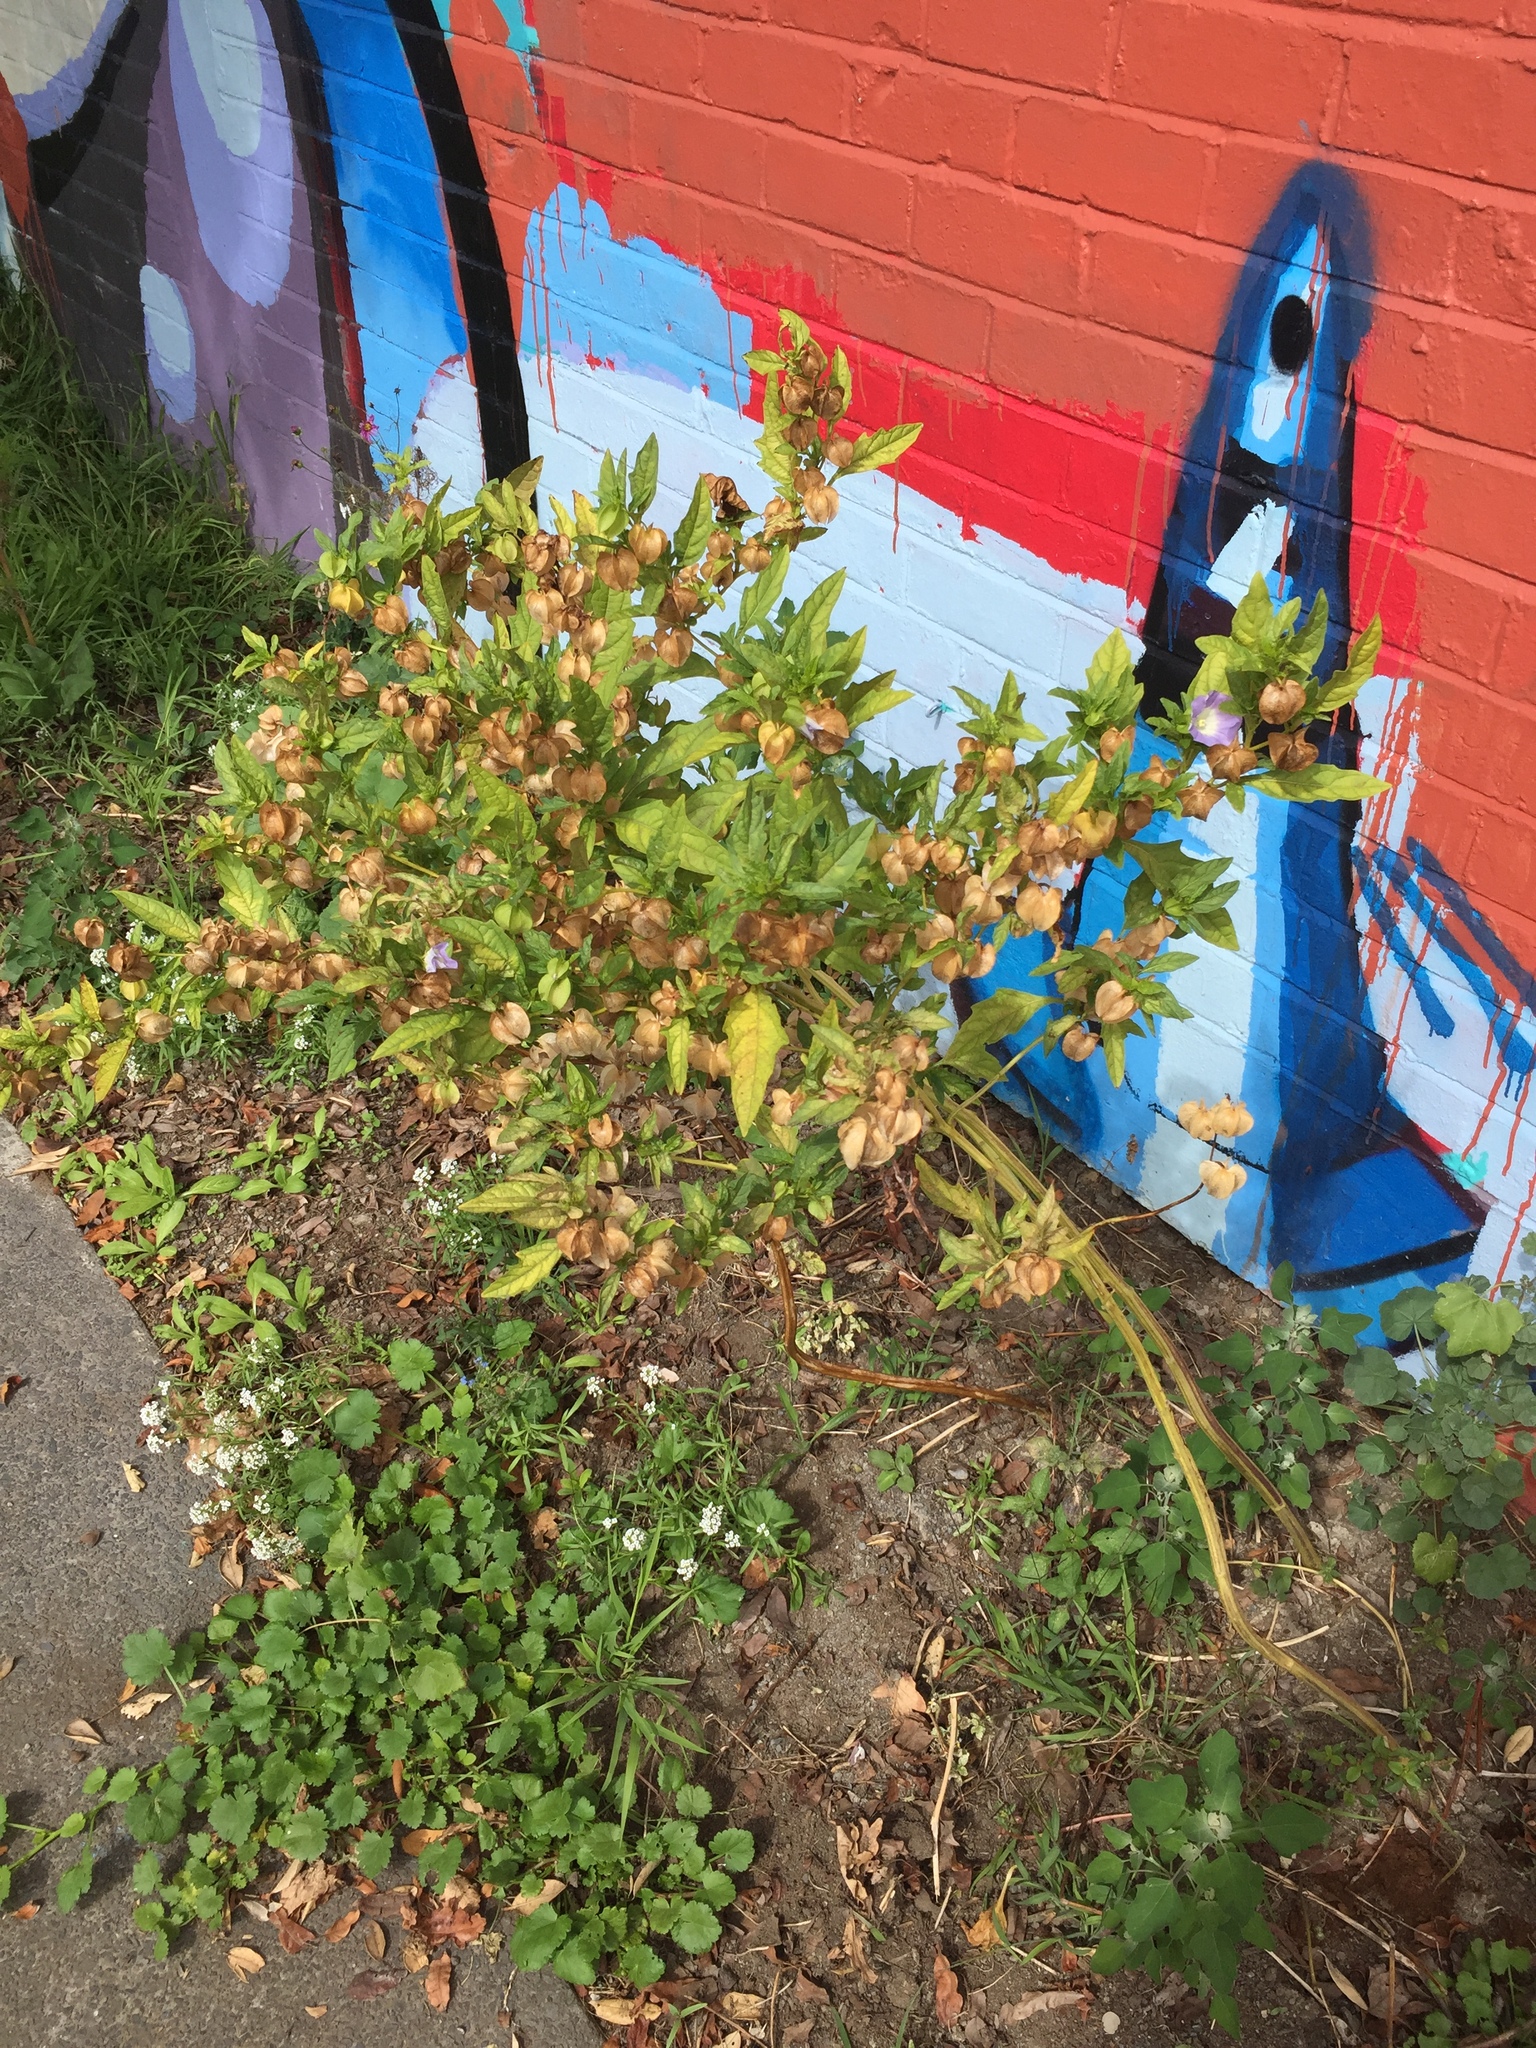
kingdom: Plantae
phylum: Tracheophyta
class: Magnoliopsida
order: Solanales
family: Solanaceae
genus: Nicandra
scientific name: Nicandra physalodes
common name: Apple-of-peru
